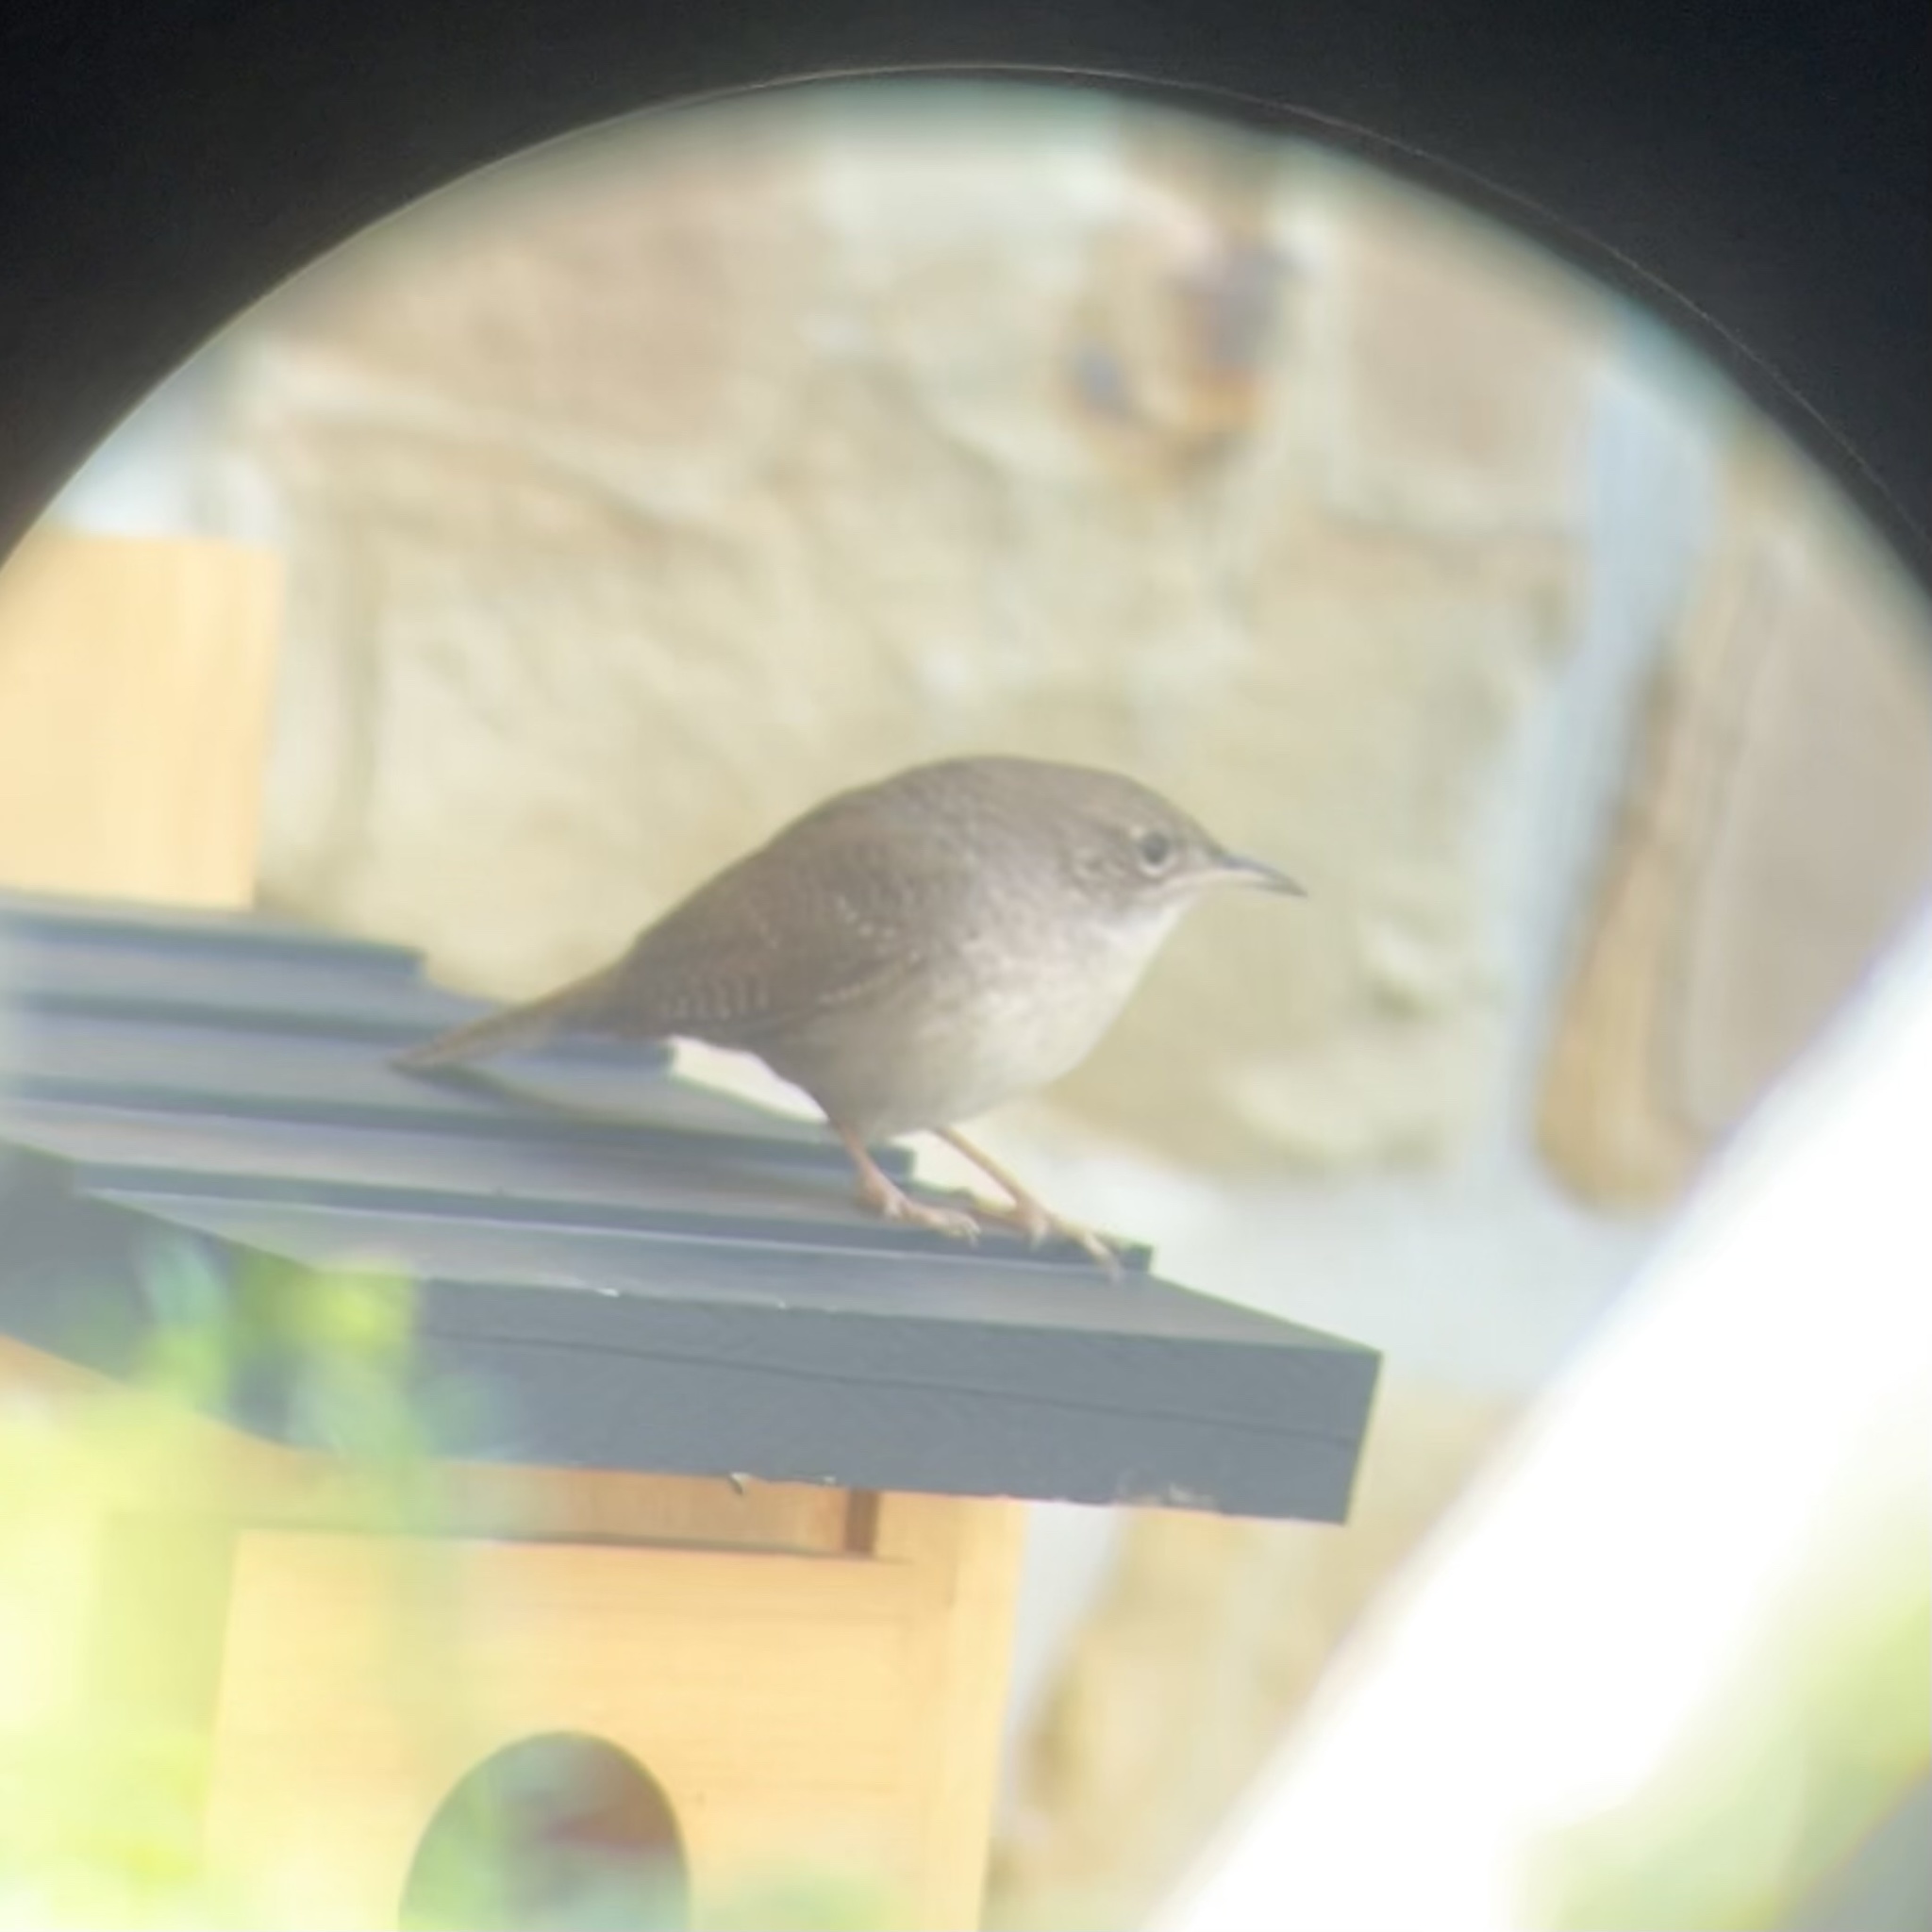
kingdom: Animalia
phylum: Chordata
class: Aves
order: Passeriformes
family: Troglodytidae
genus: Troglodytes
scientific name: Troglodytes aedon
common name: House wren
